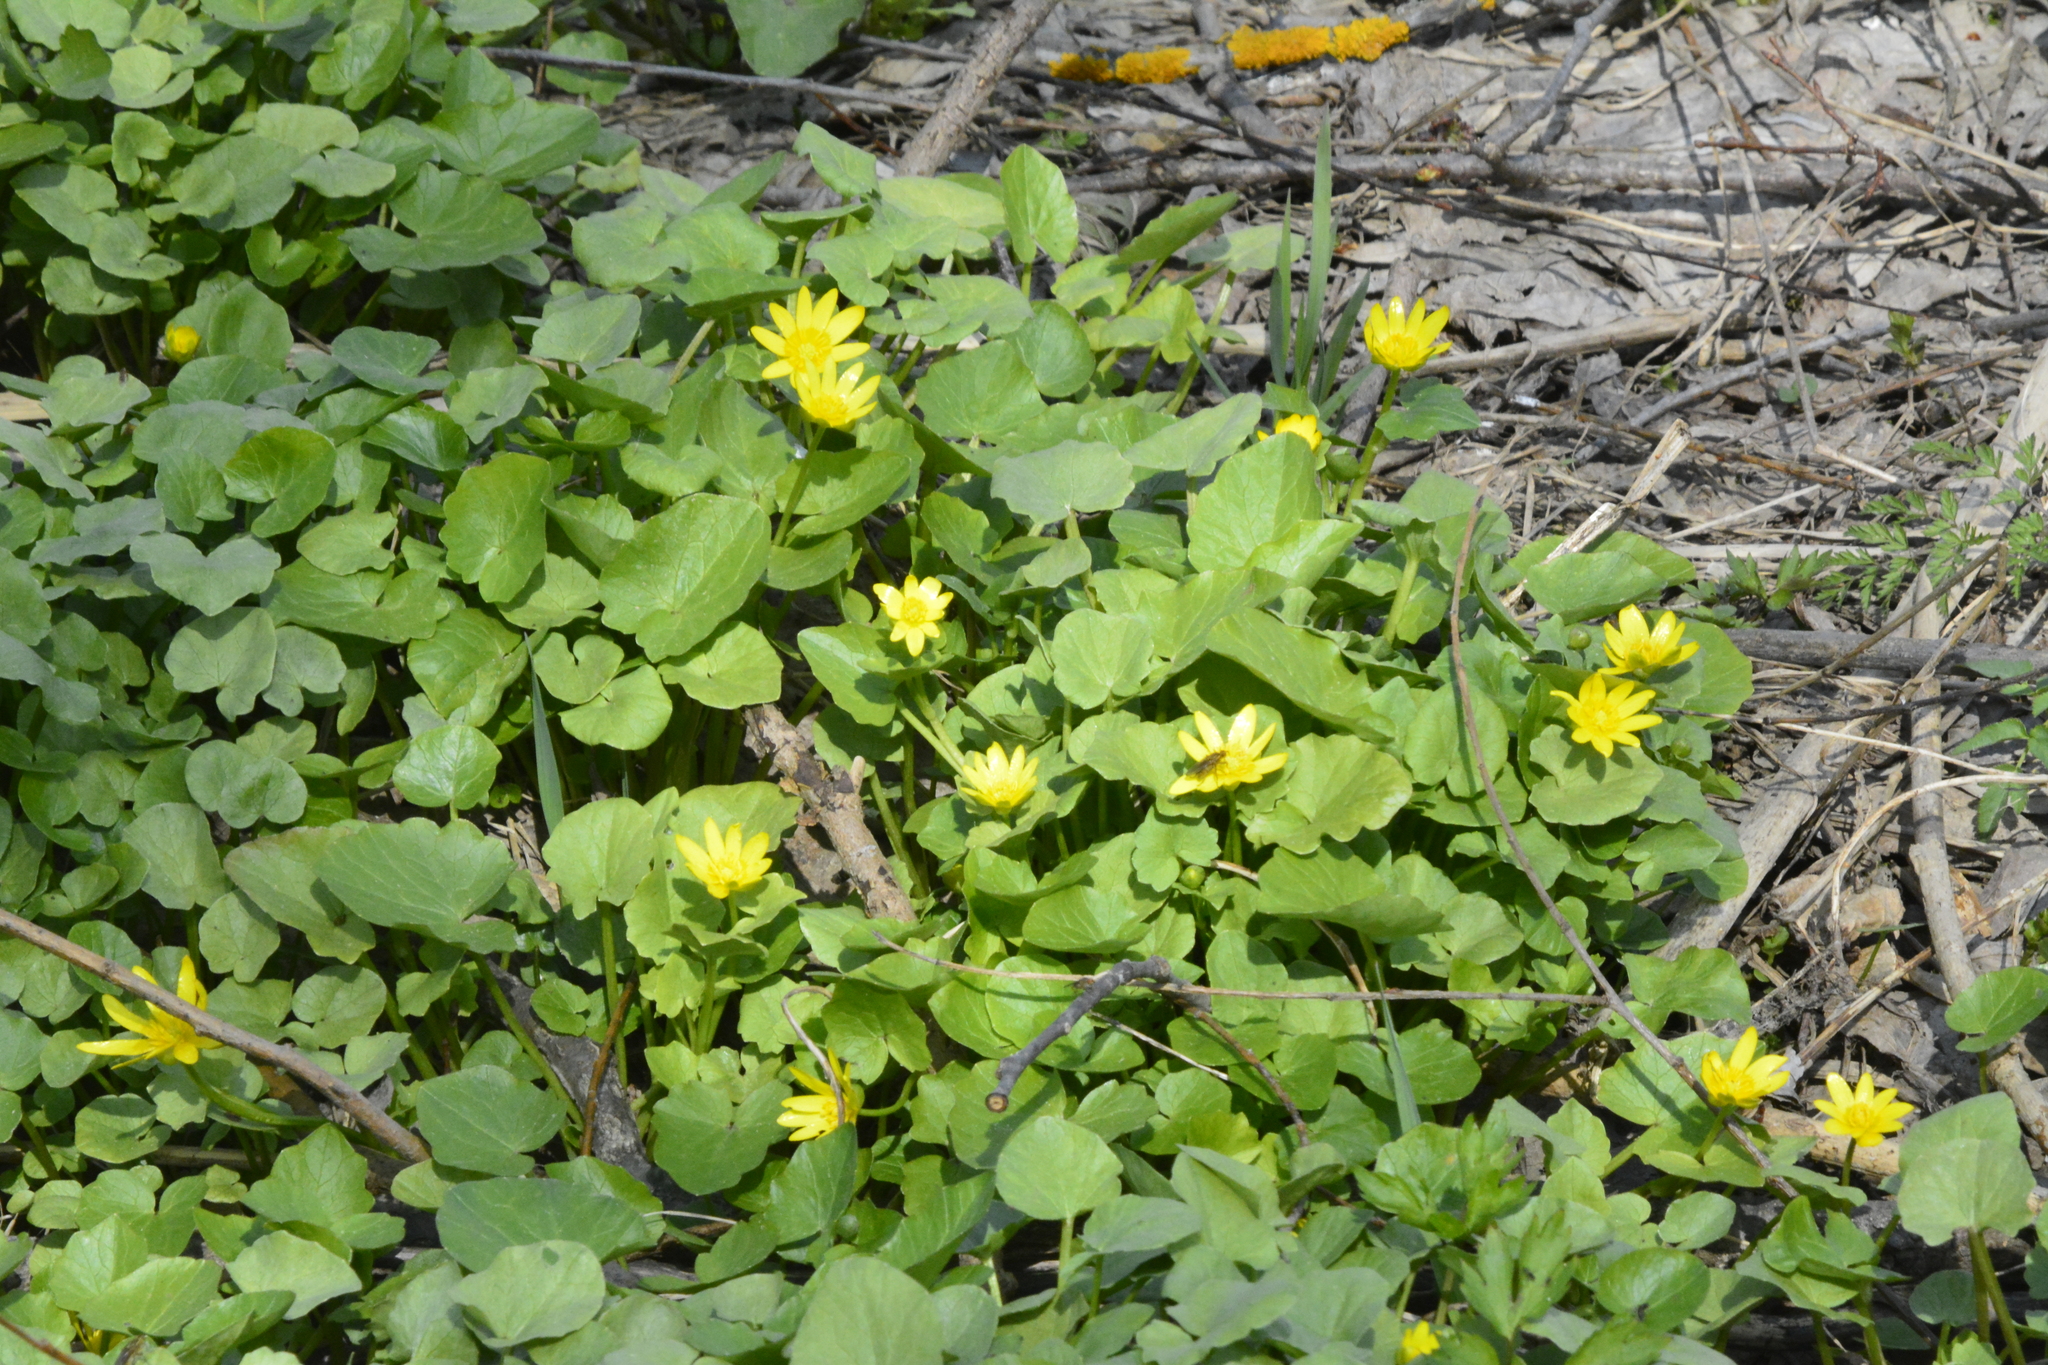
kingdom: Plantae
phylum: Tracheophyta
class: Magnoliopsida
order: Ranunculales
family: Ranunculaceae
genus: Ficaria
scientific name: Ficaria verna
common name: Lesser celandine
